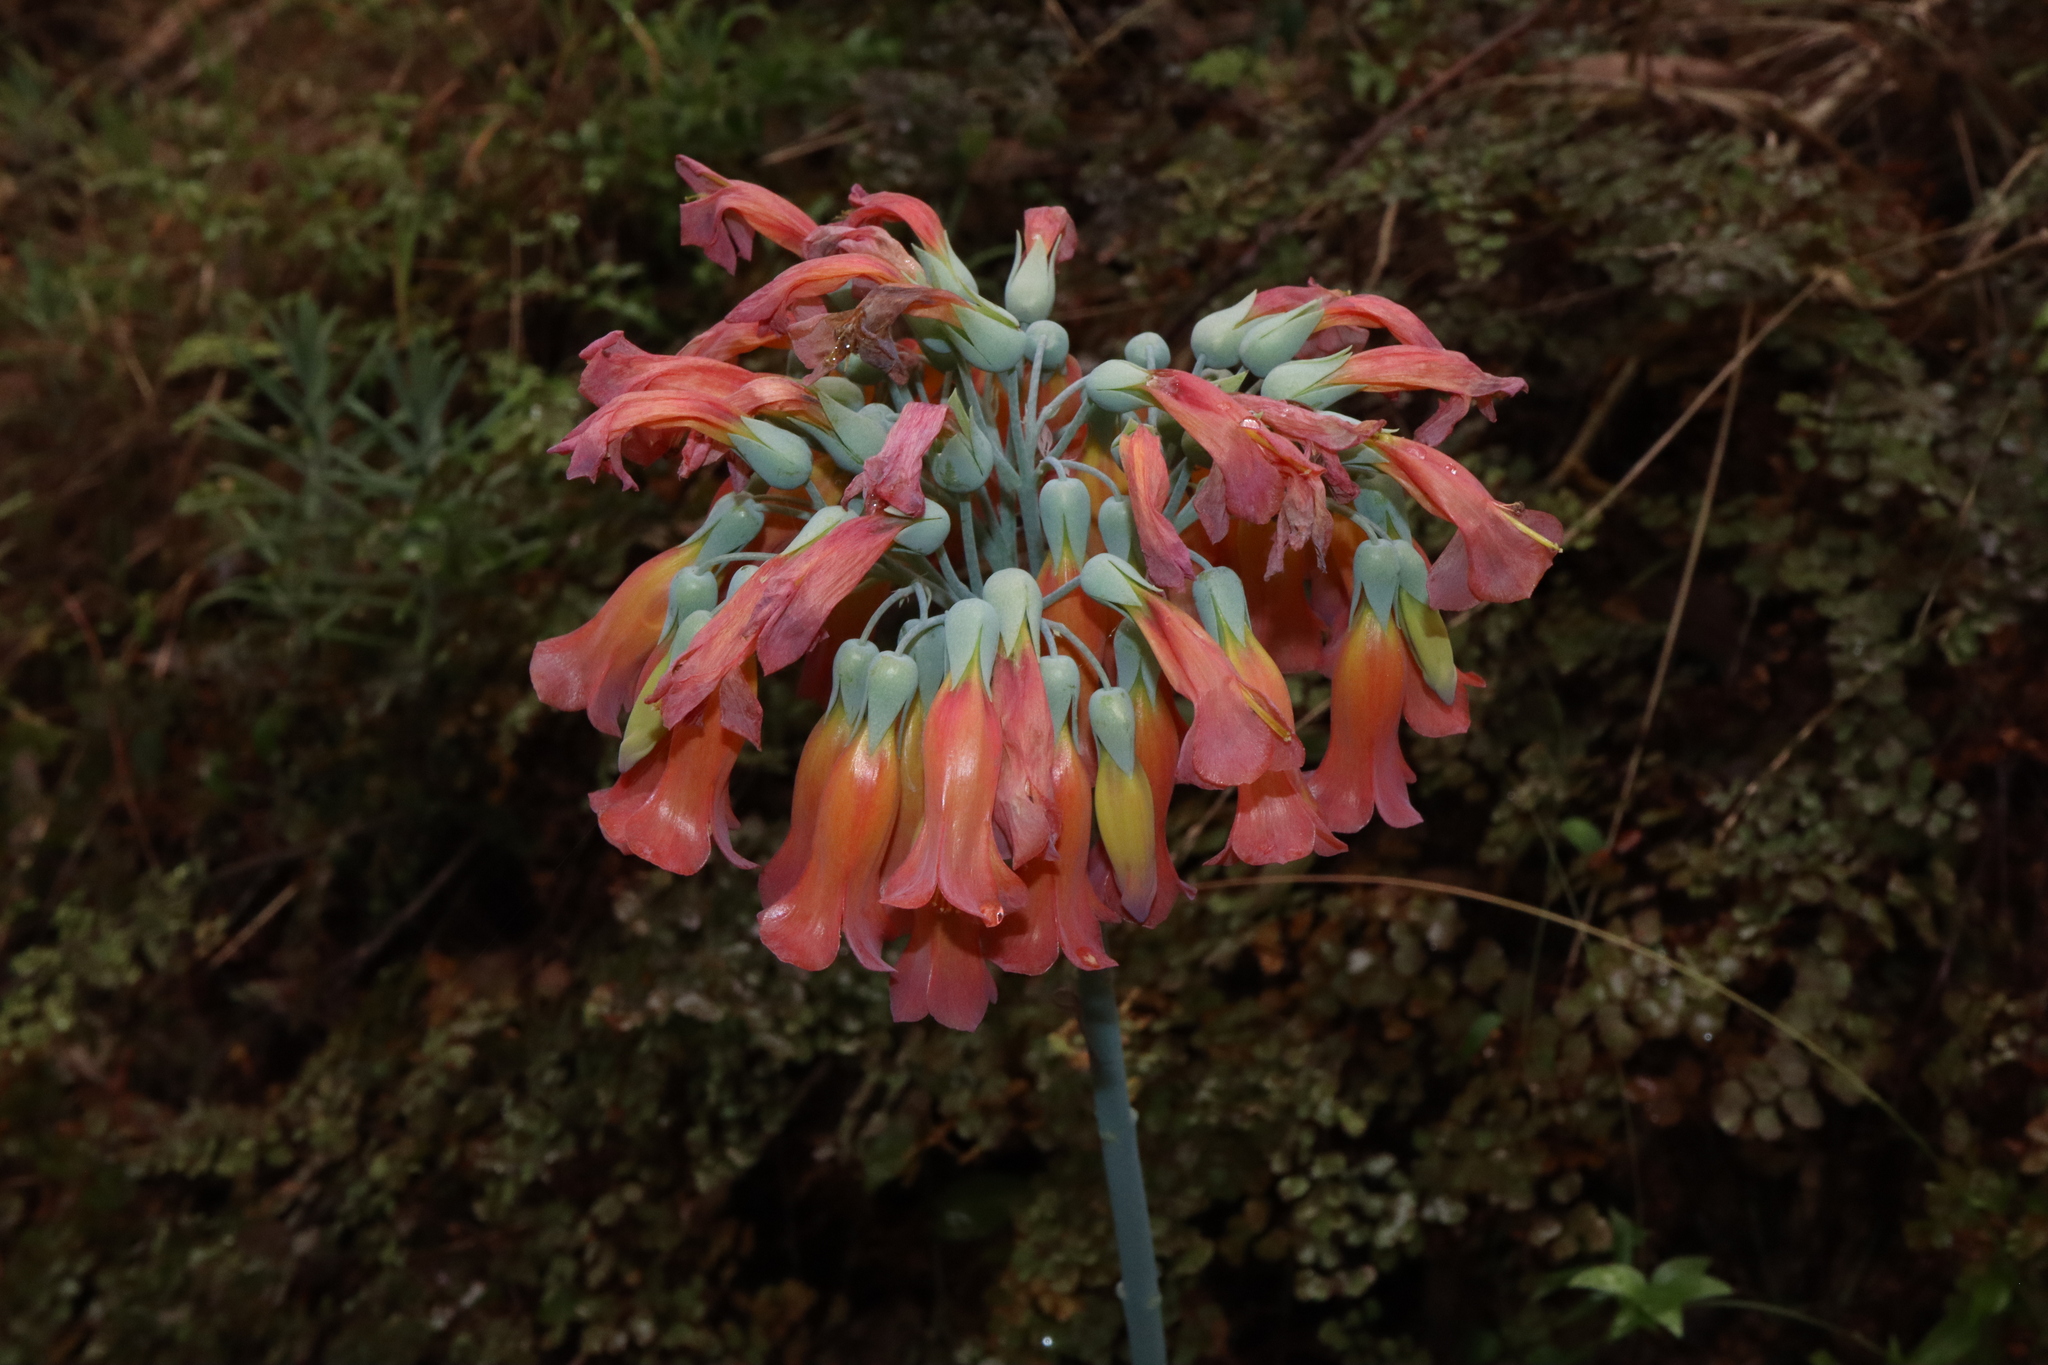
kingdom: Plantae
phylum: Tracheophyta
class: Magnoliopsida
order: Saxifragales
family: Crassulaceae
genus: Kalanchoe
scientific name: Kalanchoe delagoensis
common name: Chandelier plant
